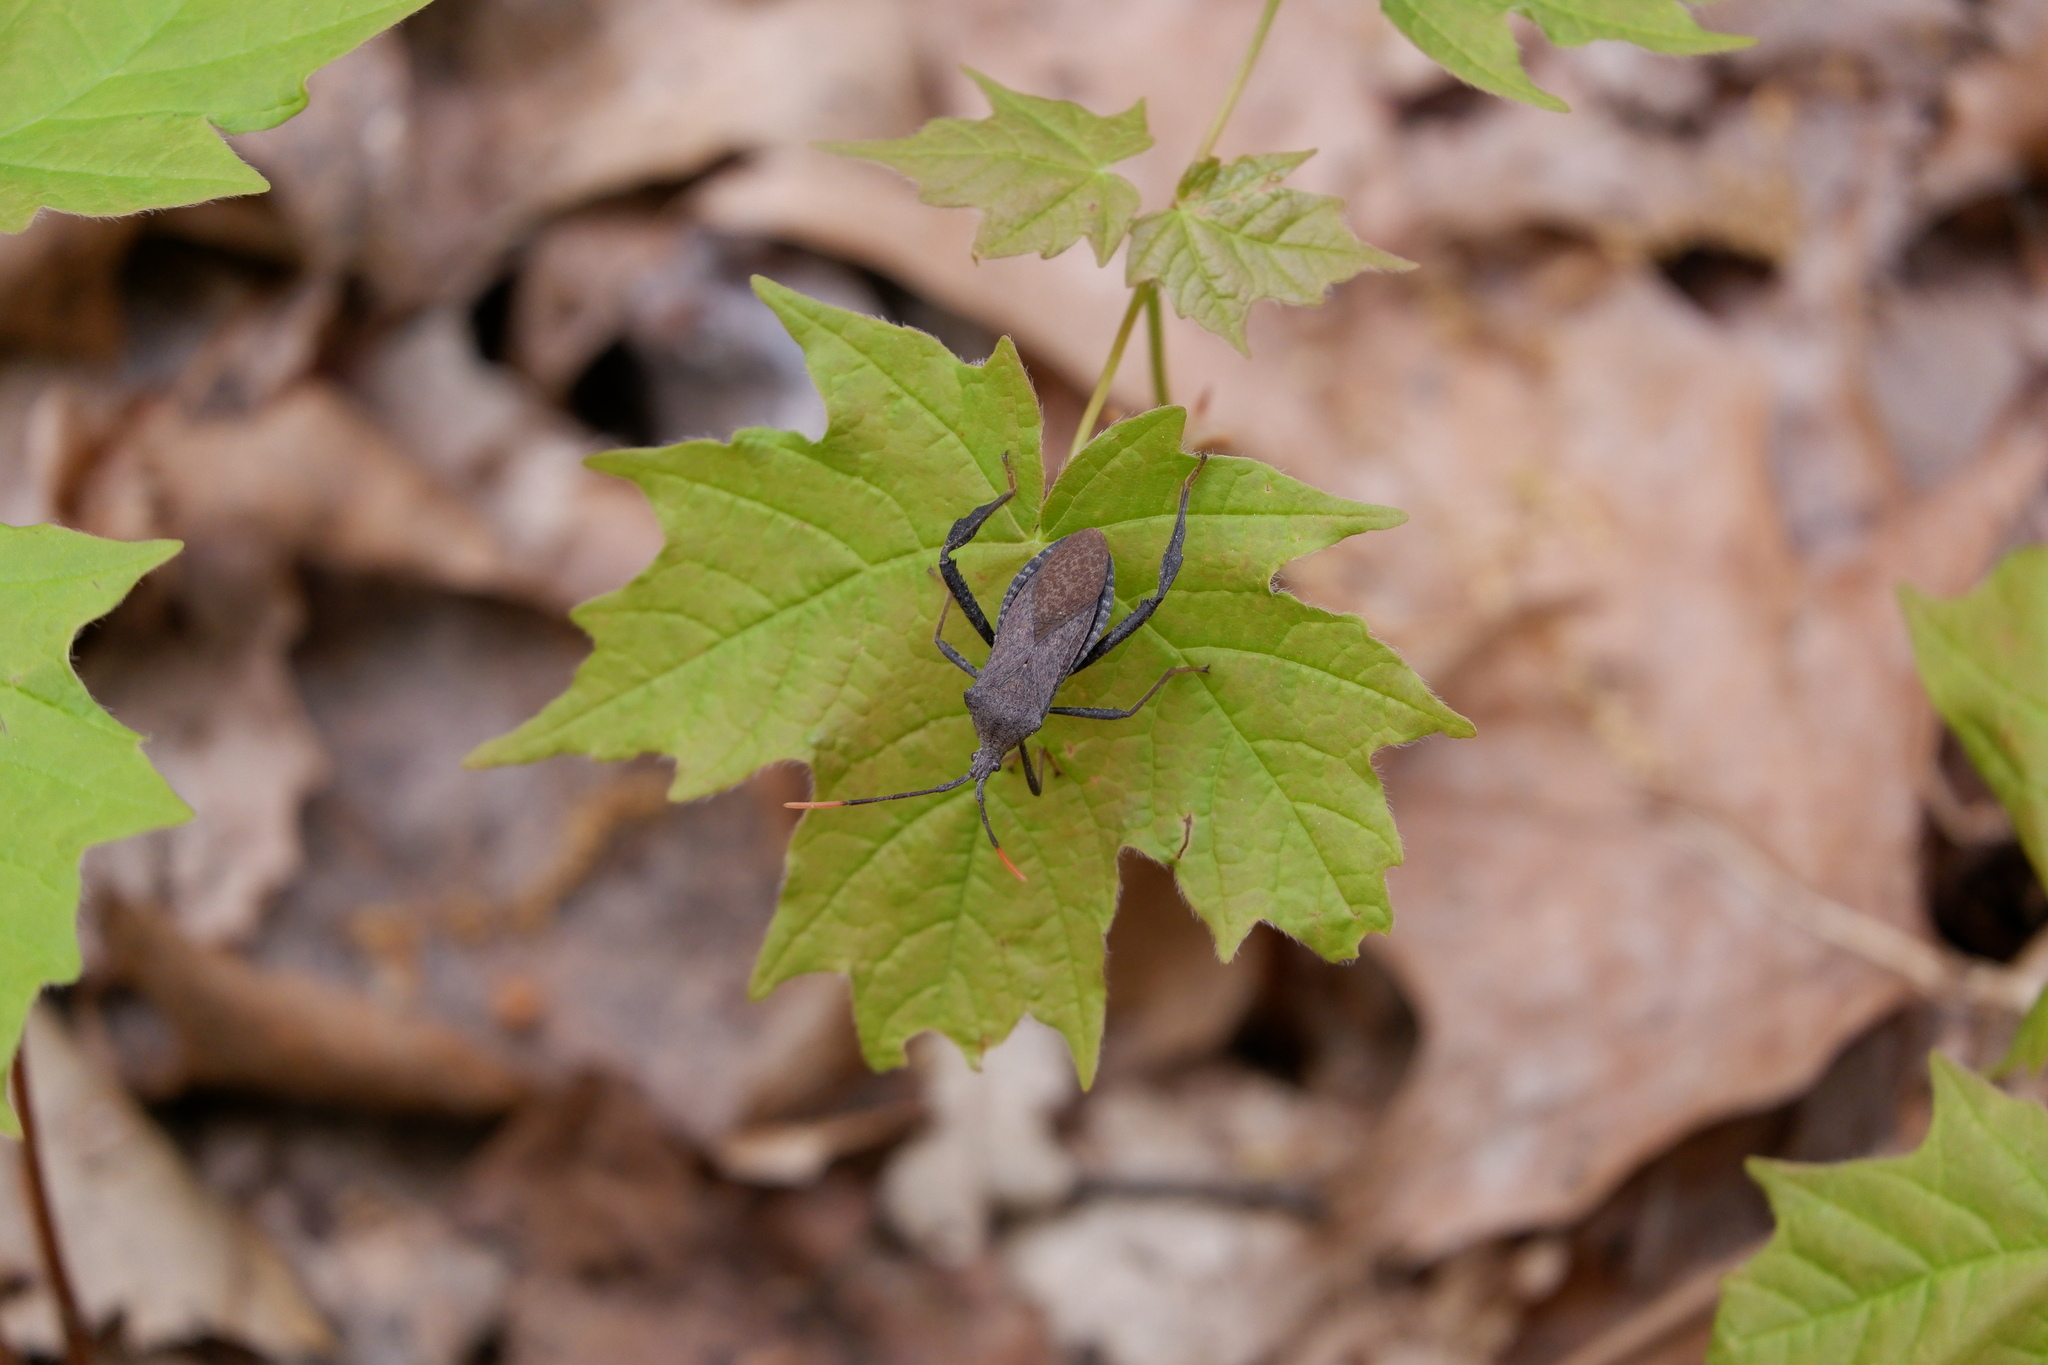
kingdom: Animalia
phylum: Arthropoda
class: Insecta
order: Hemiptera
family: Coreidae
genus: Acanthocephala
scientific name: Acanthocephala terminalis
